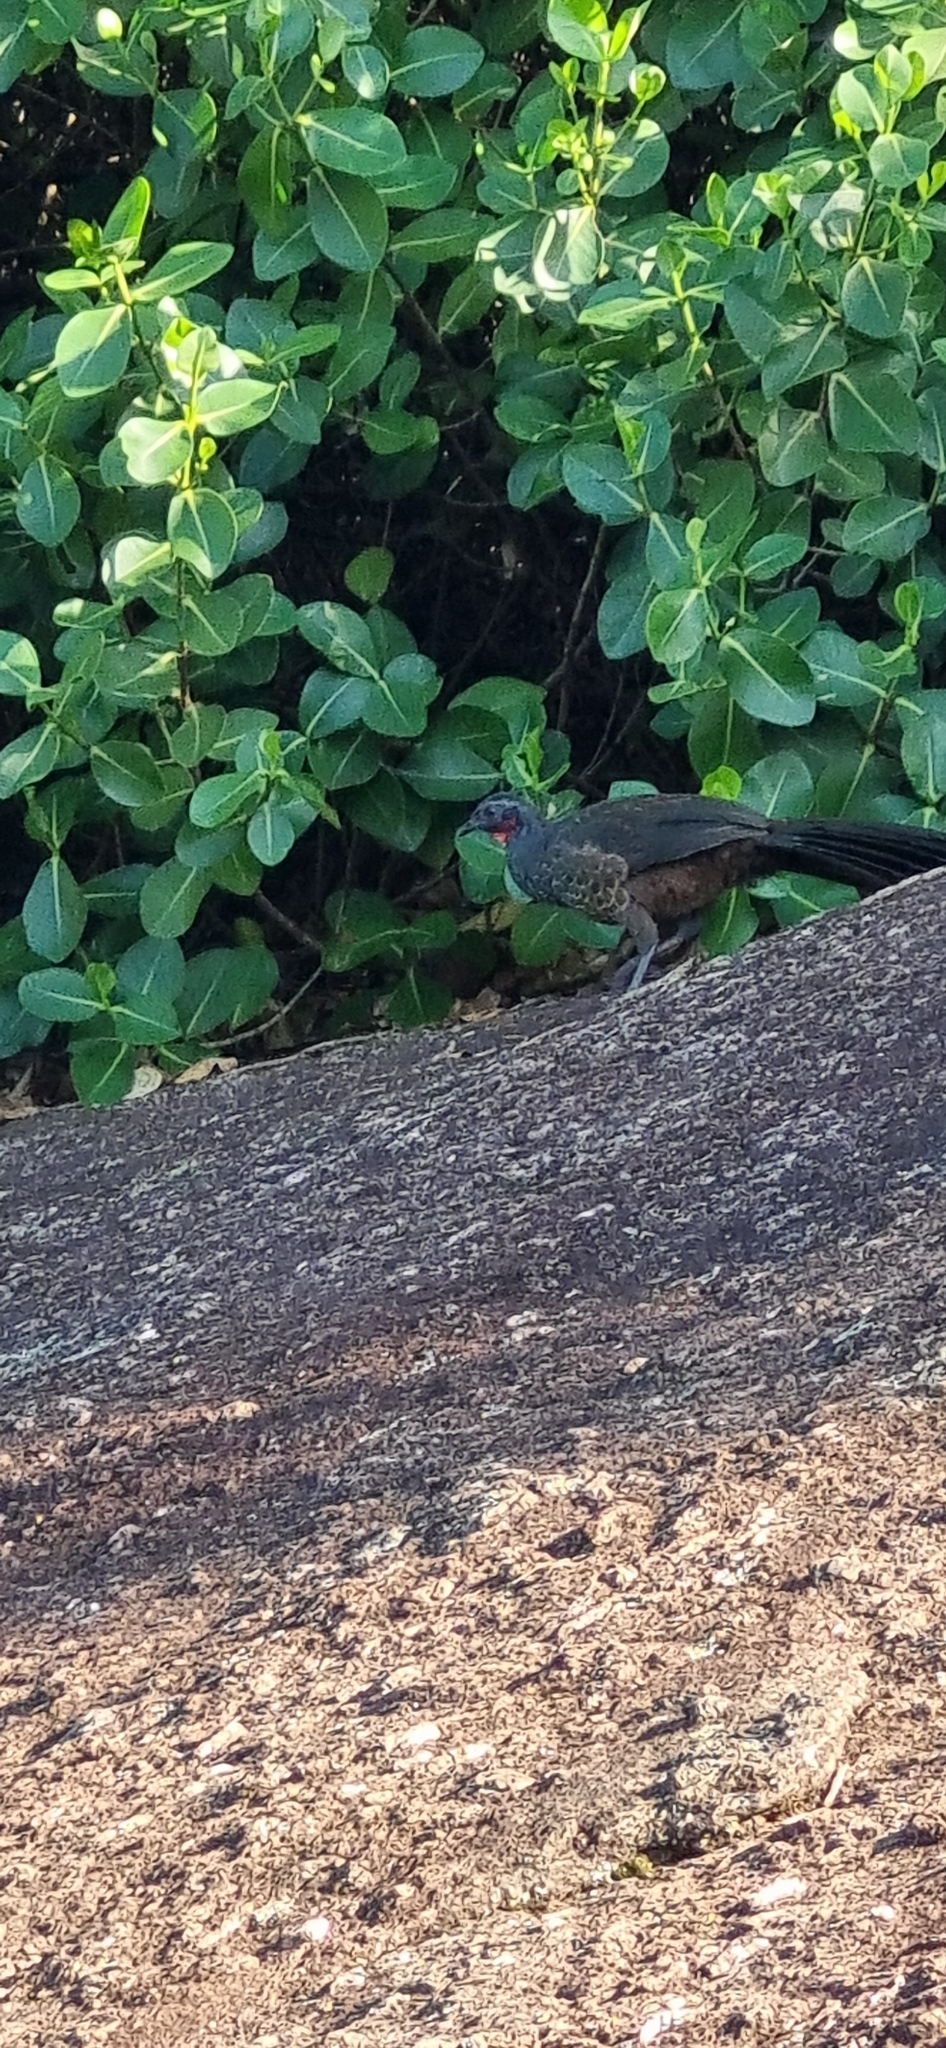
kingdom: Animalia
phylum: Chordata
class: Aves
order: Galliformes
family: Cracidae
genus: Penelope
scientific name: Penelope superciliaris
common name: Rusty-margined guan
